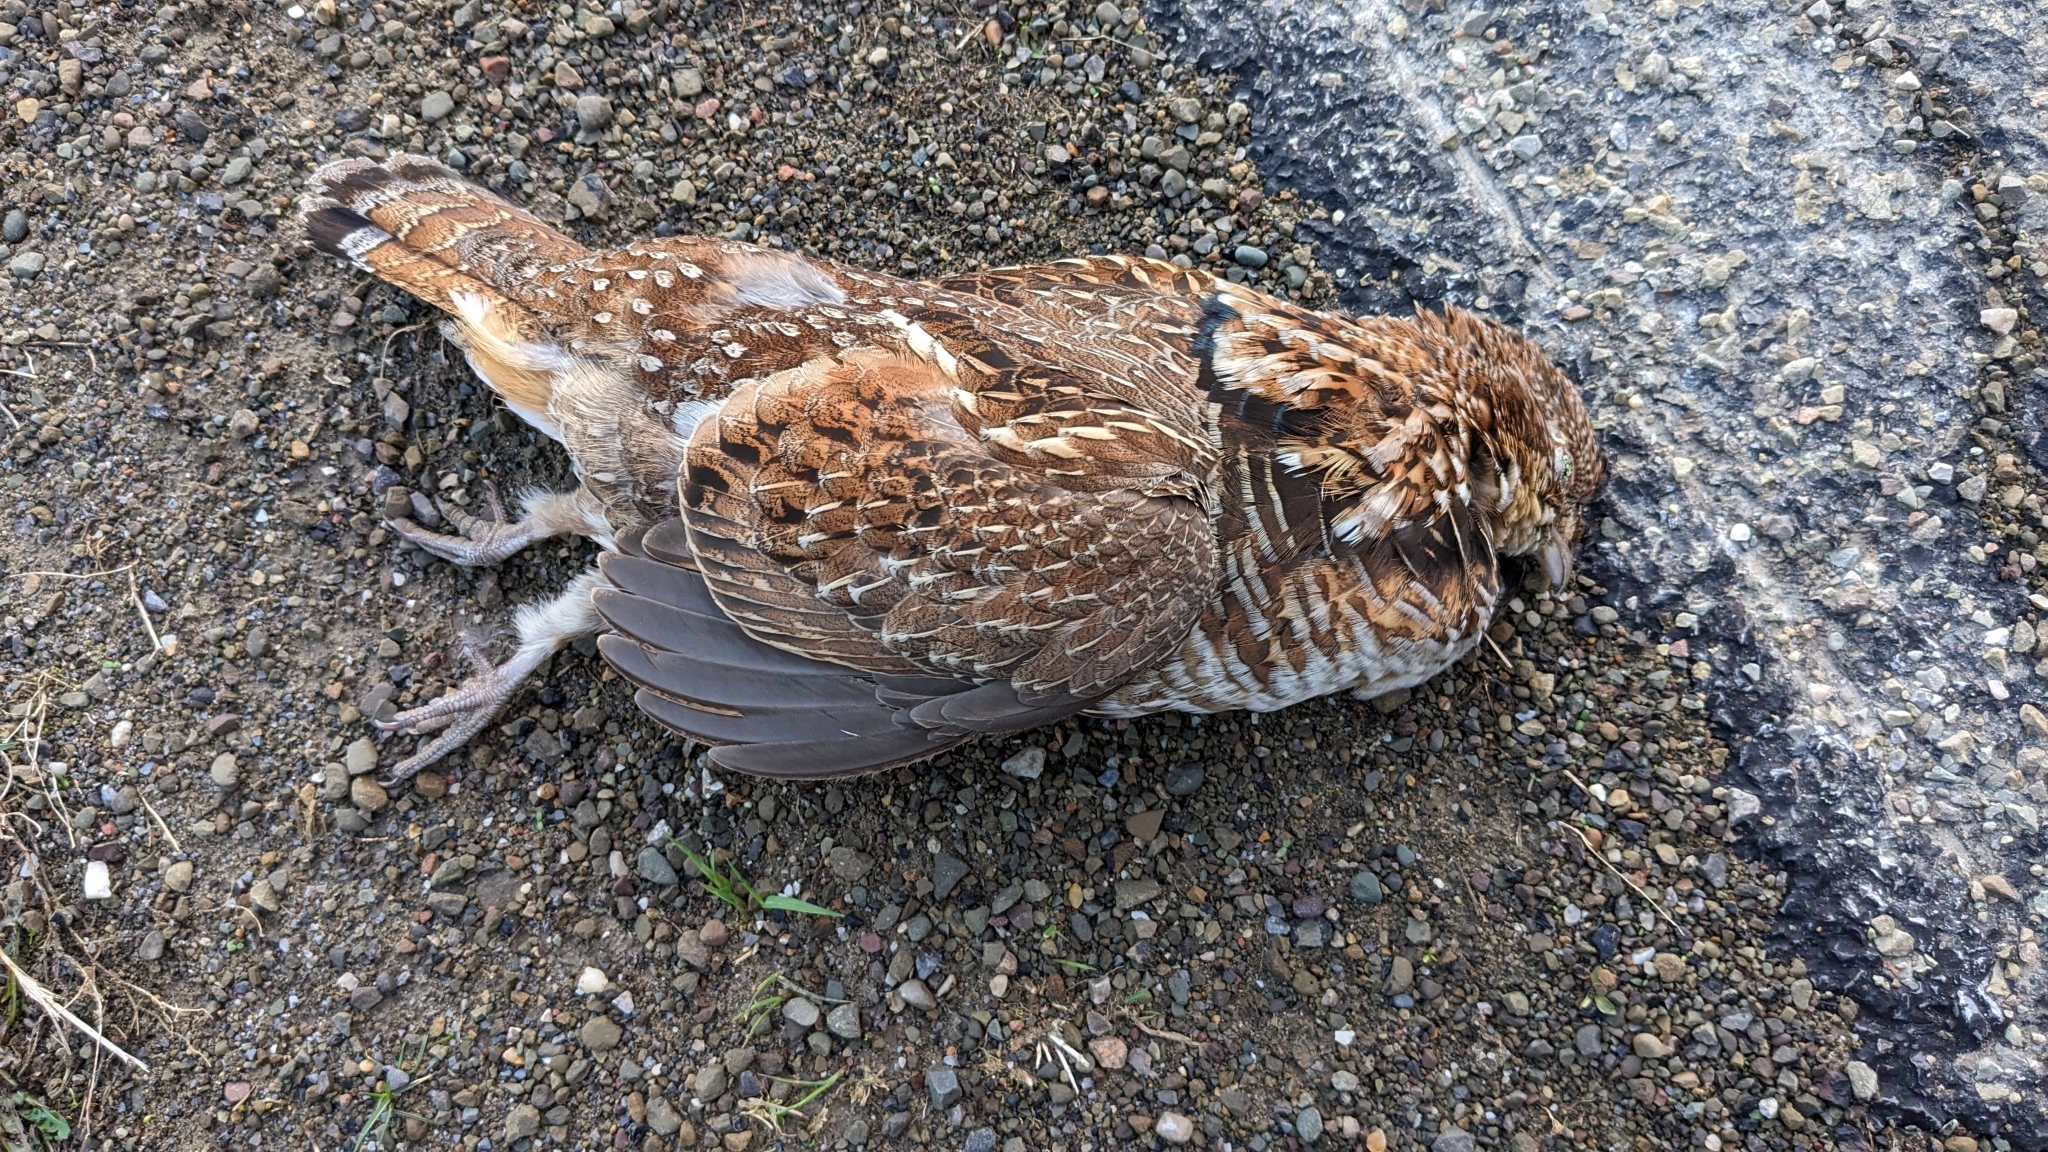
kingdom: Animalia
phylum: Chordata
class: Aves
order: Galliformes
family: Phasianidae
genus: Bonasa
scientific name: Bonasa umbellus
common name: Ruffed grouse
